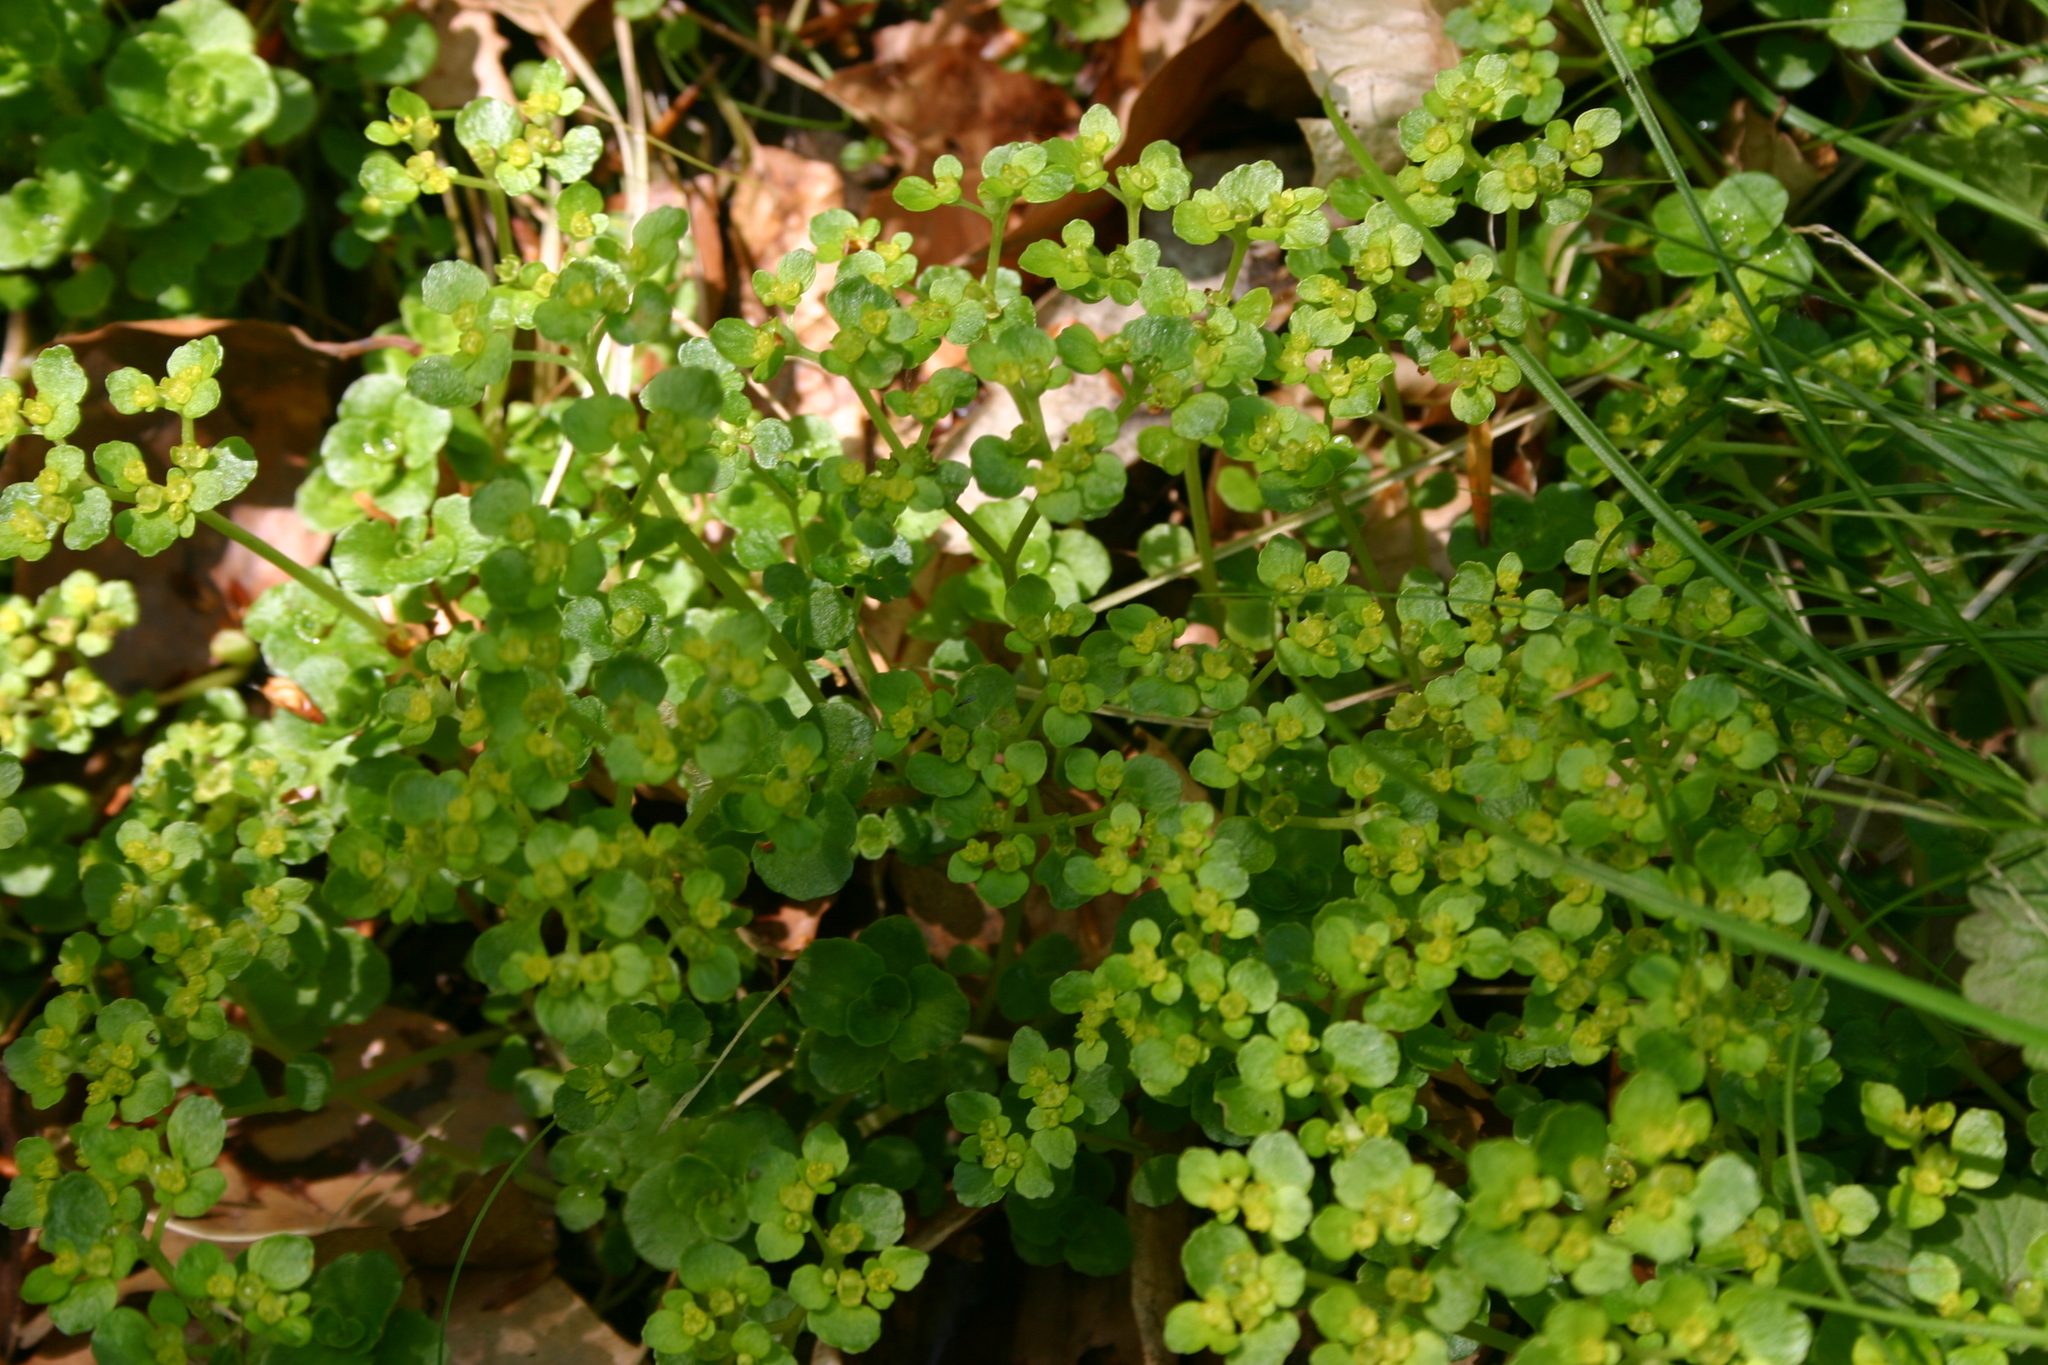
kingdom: Plantae
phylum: Tracheophyta
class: Magnoliopsida
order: Saxifragales
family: Saxifragaceae
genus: Chrysosplenium
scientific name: Chrysosplenium oppositifolium
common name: Opposite-leaved golden-saxifrage
